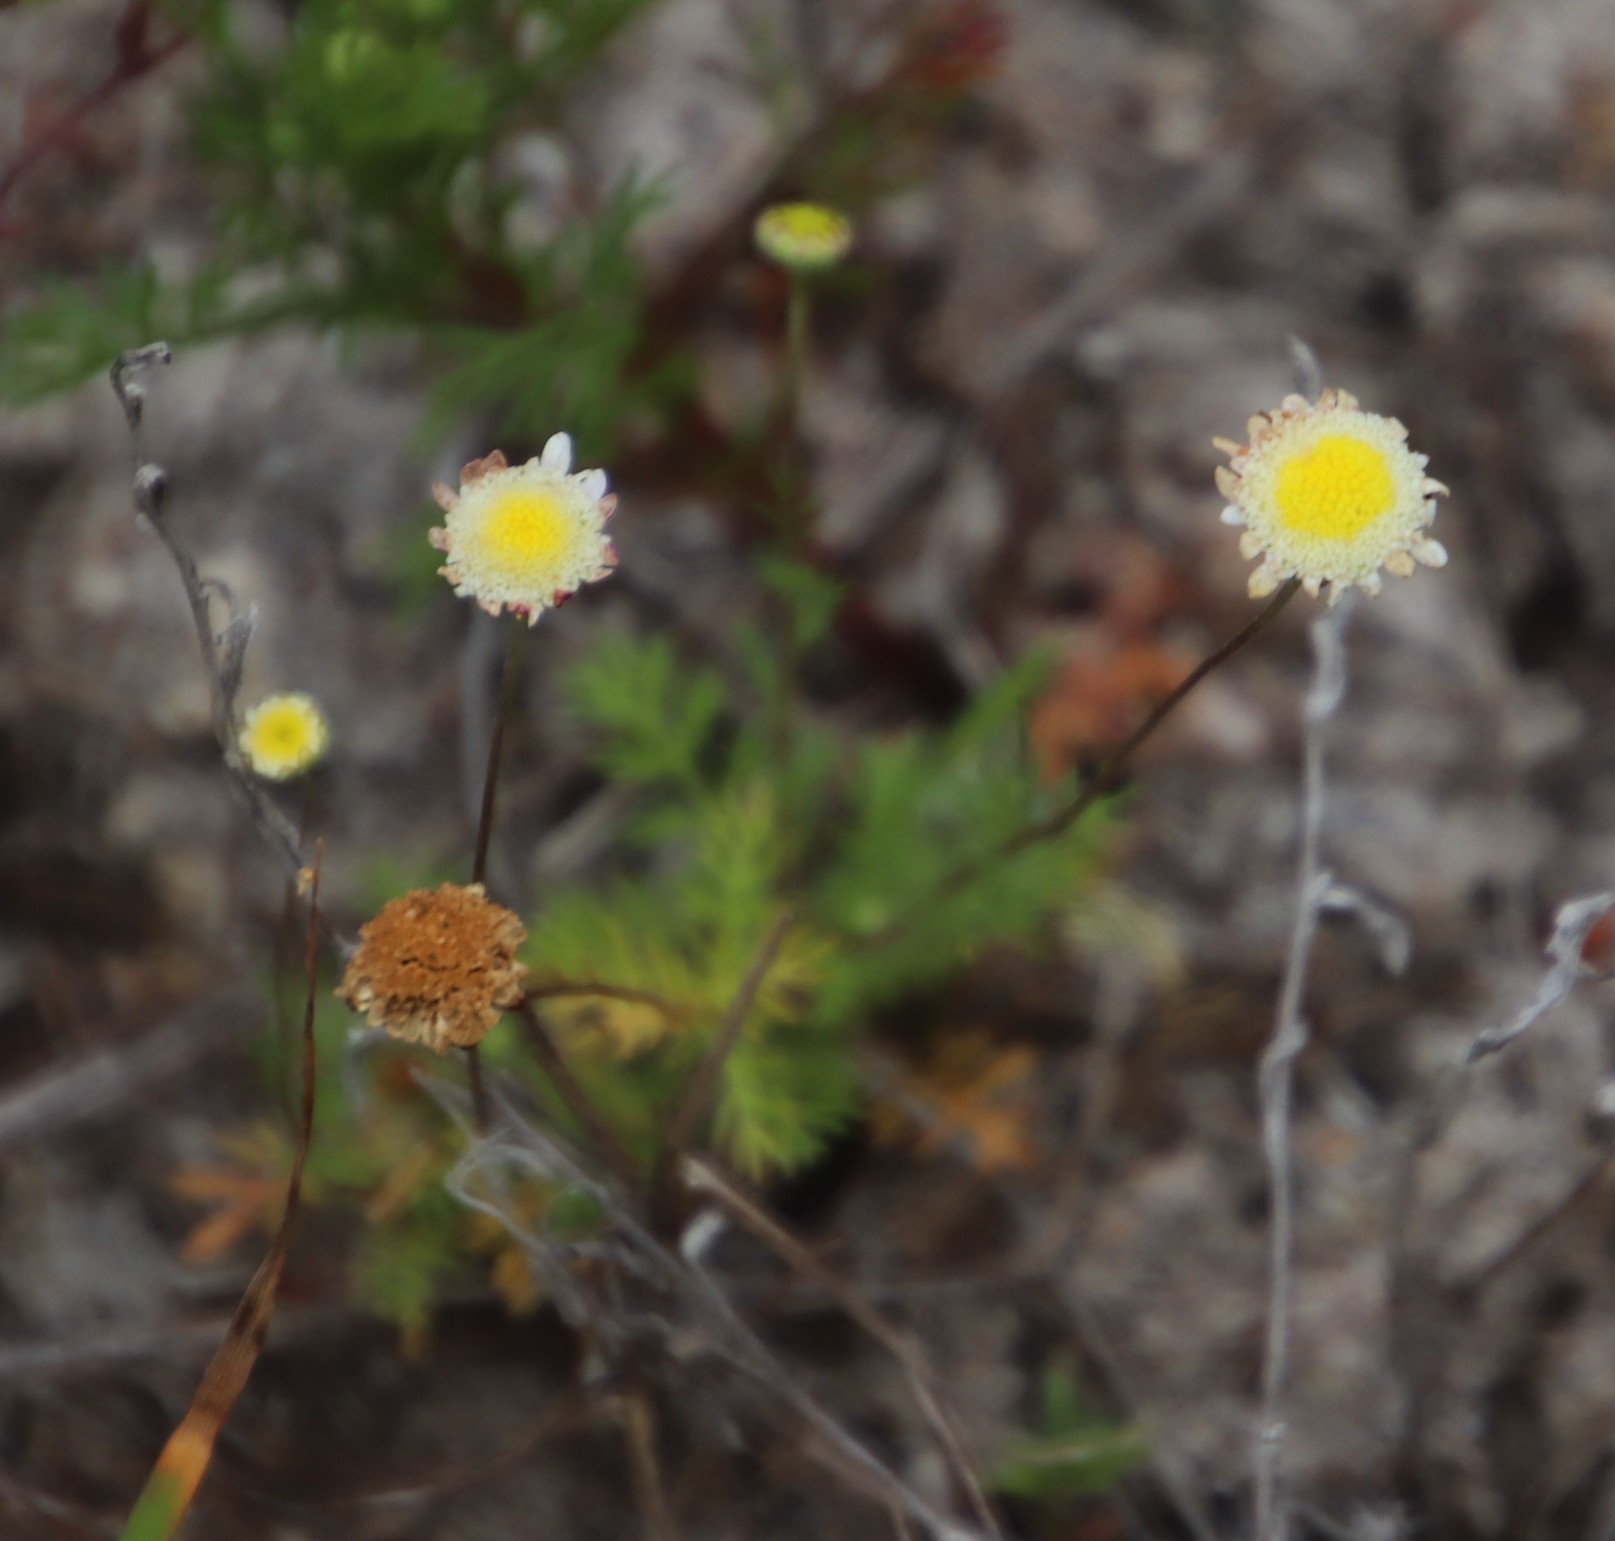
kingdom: Plantae
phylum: Tracheophyta
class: Magnoliopsida
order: Asterales
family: Asteraceae
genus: Cotula
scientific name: Cotula turbinata
